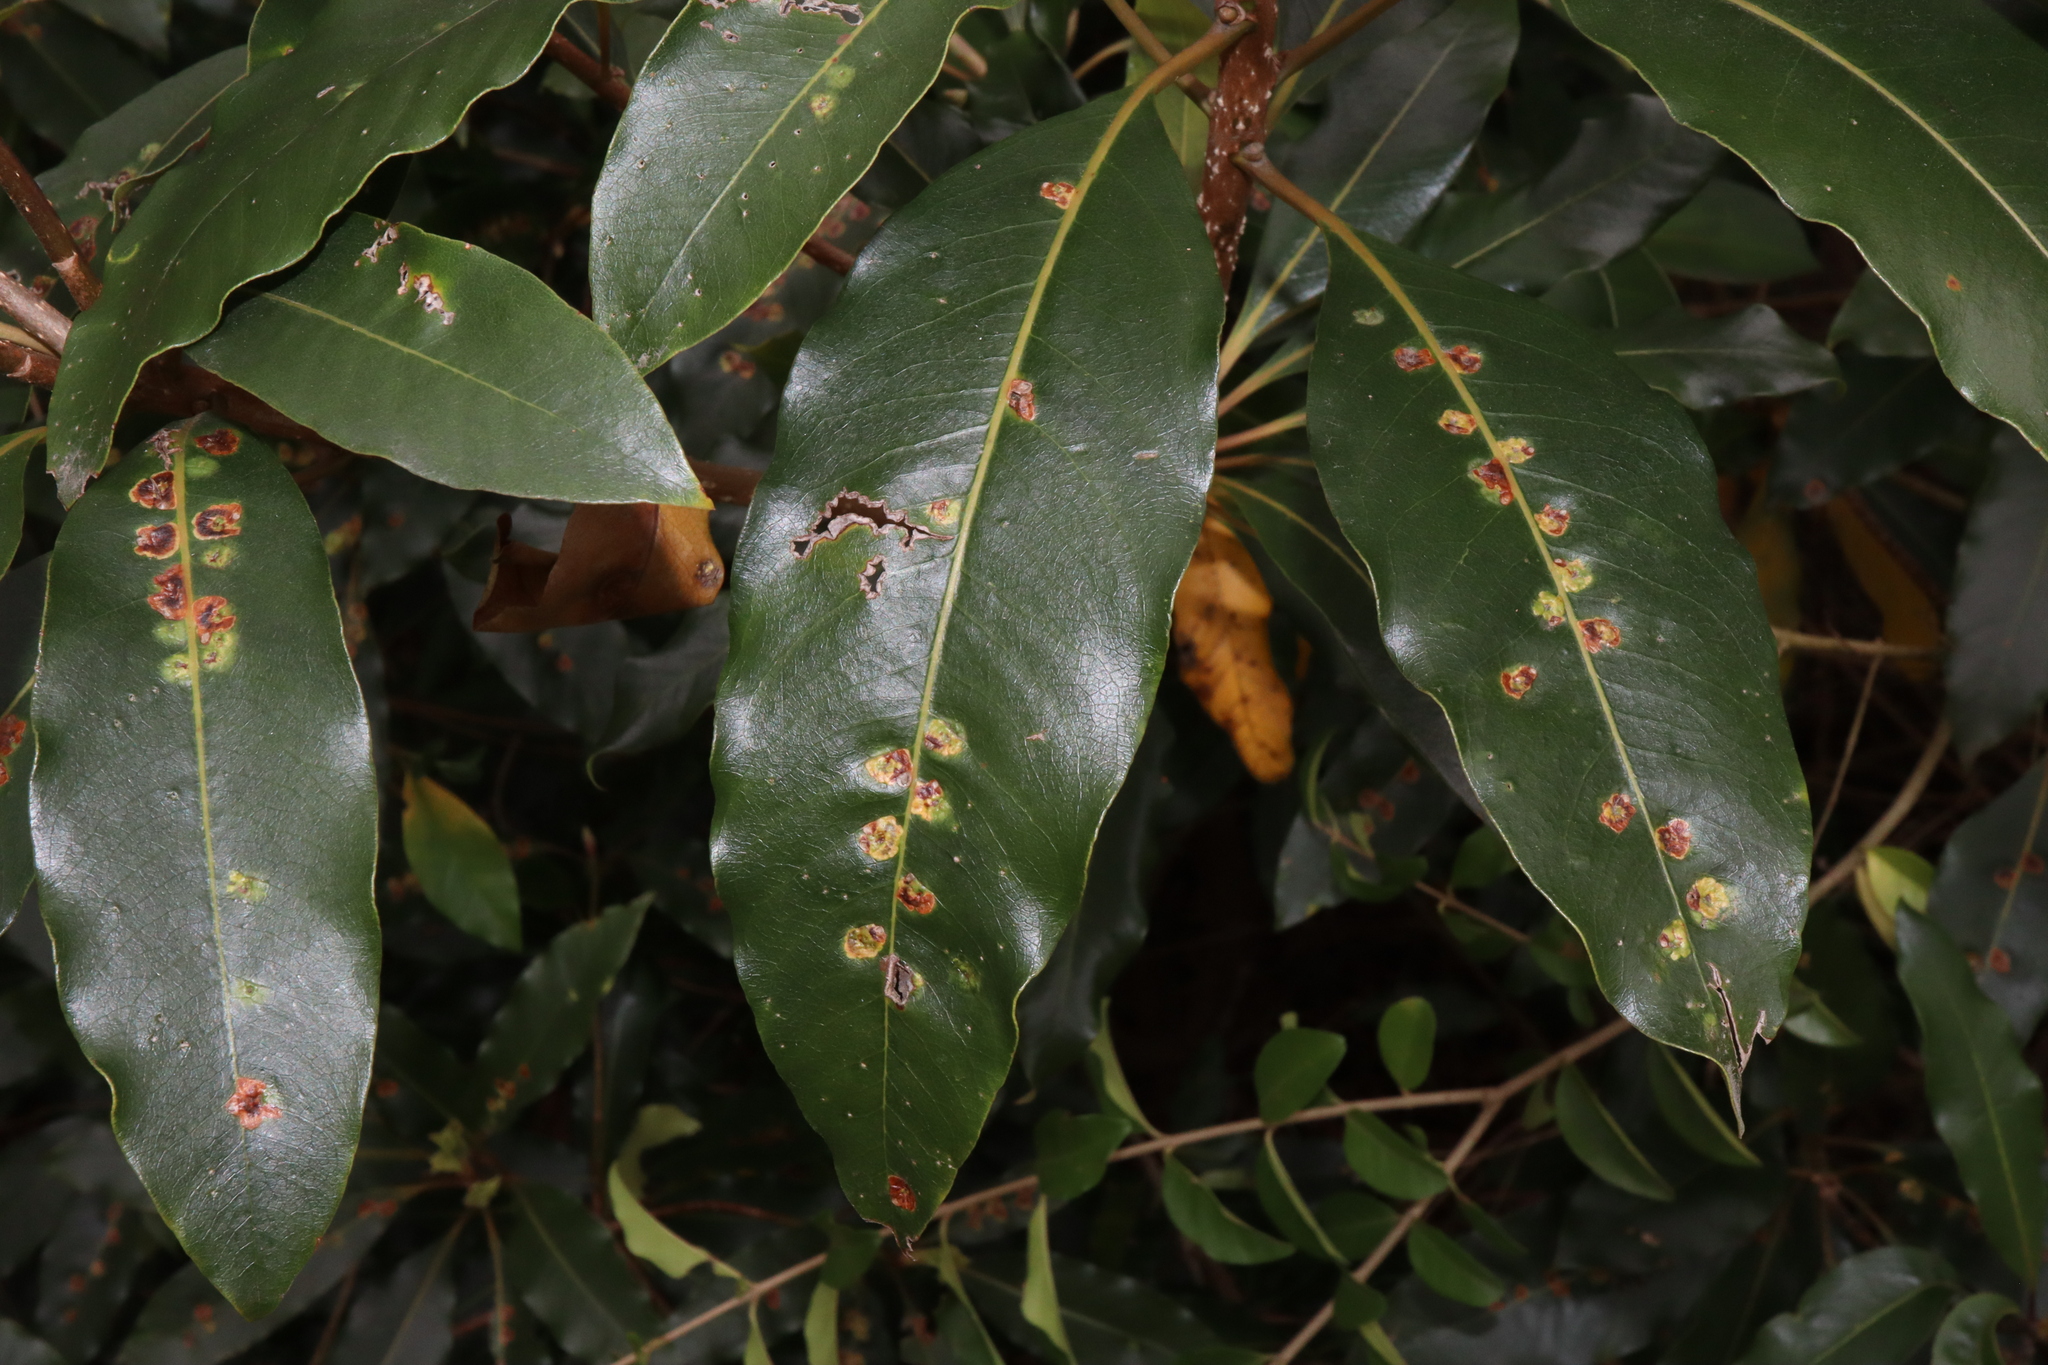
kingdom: Animalia
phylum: Arthropoda
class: Insecta
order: Diptera
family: Agromyzidae
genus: Phytoliriomyza
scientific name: Phytoliriomyza pittosporophylli
